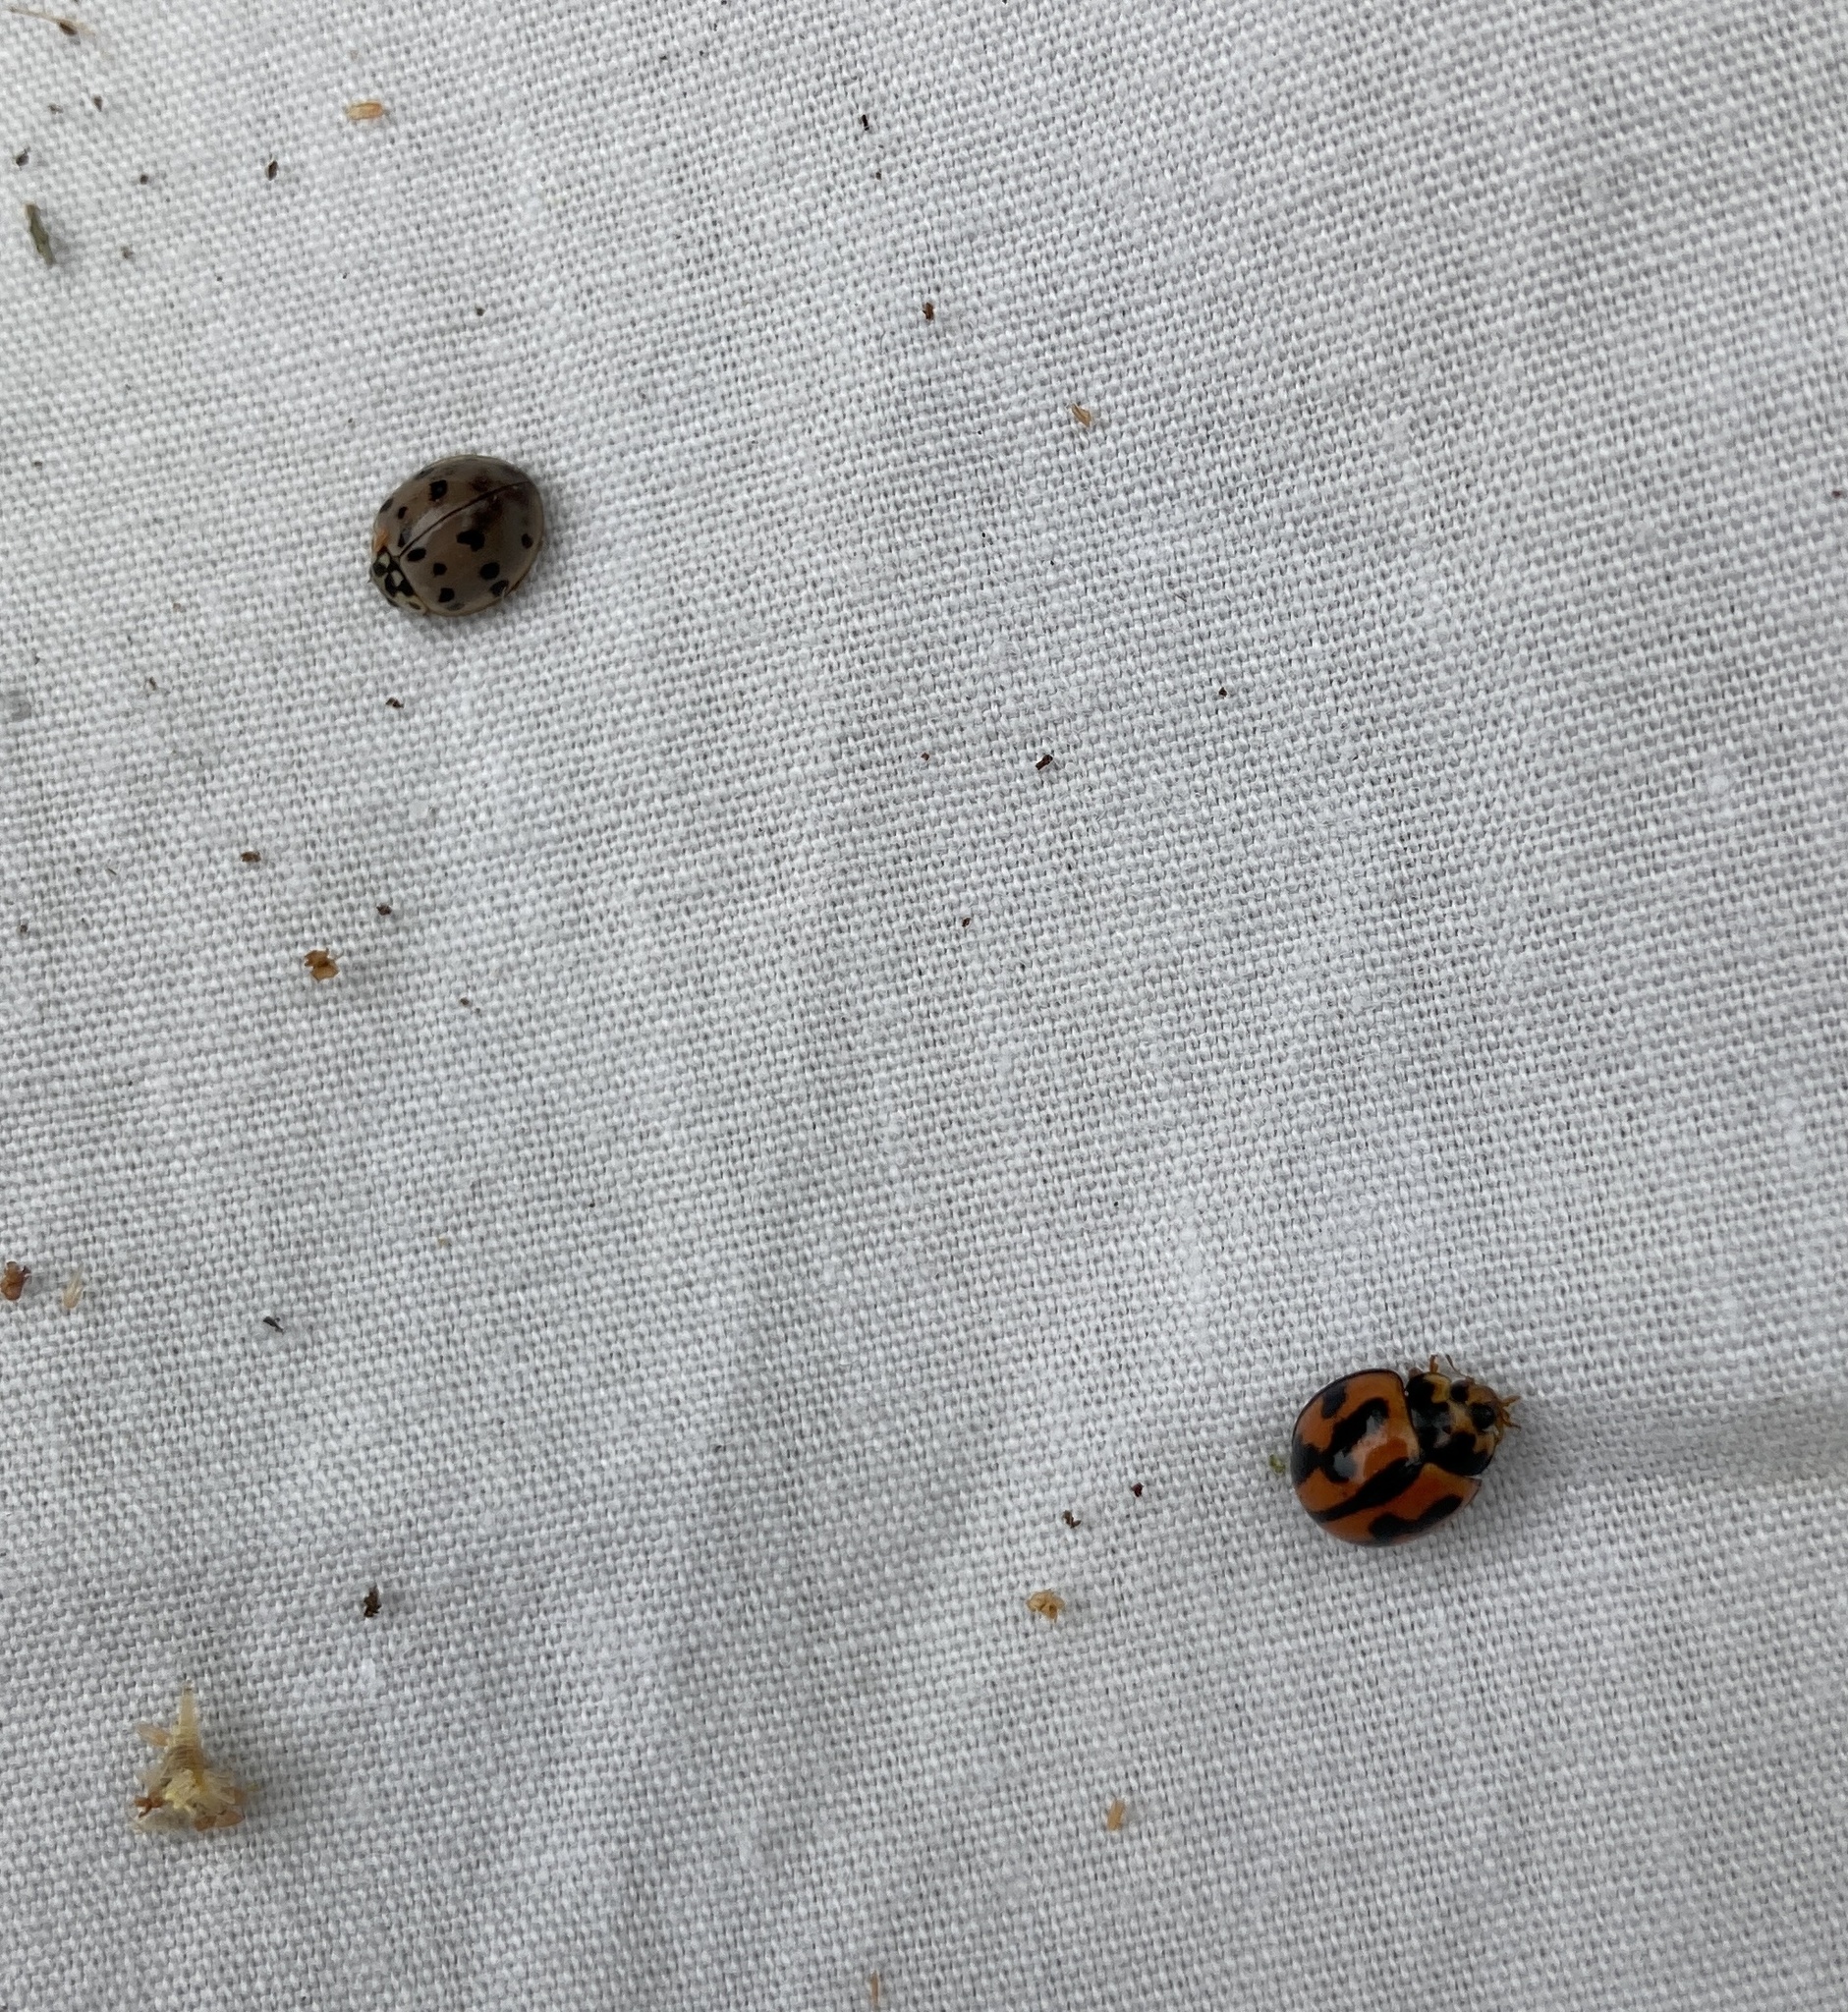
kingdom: Animalia
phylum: Arthropoda
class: Insecta
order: Coleoptera
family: Coccinellidae
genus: Coelophora
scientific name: Coelophora inaequalis
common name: Common australian lady beetle
